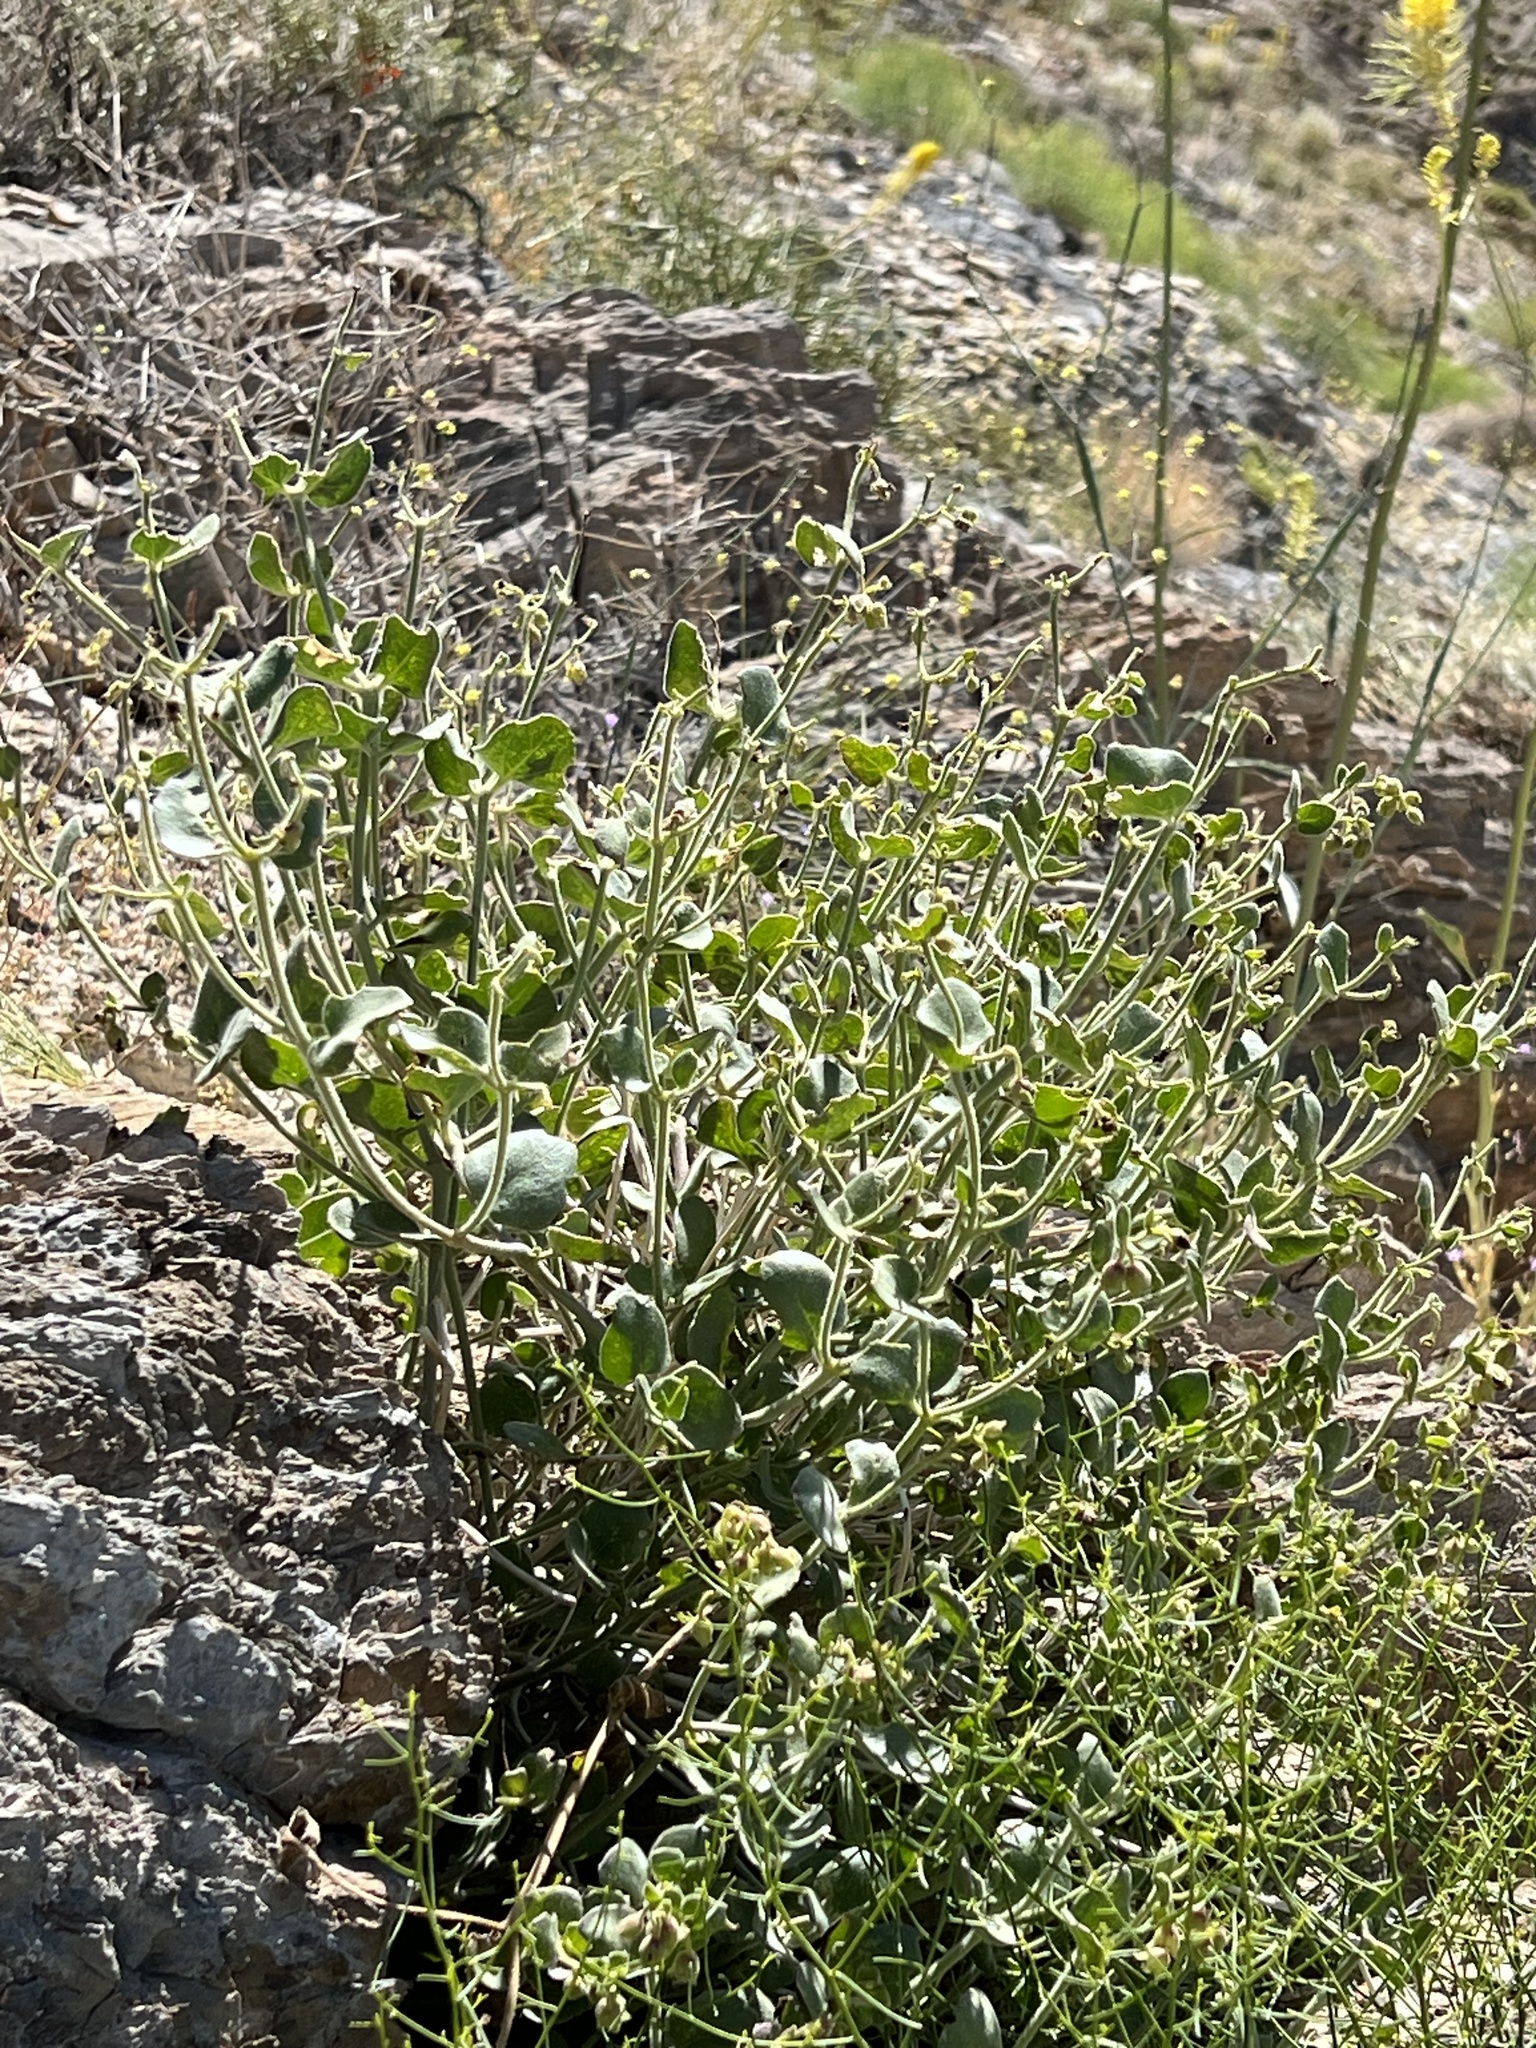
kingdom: Plantae
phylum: Tracheophyta
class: Magnoliopsida
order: Caryophyllales
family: Nyctaginaceae
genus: Mirabilis
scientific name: Mirabilis laevis
